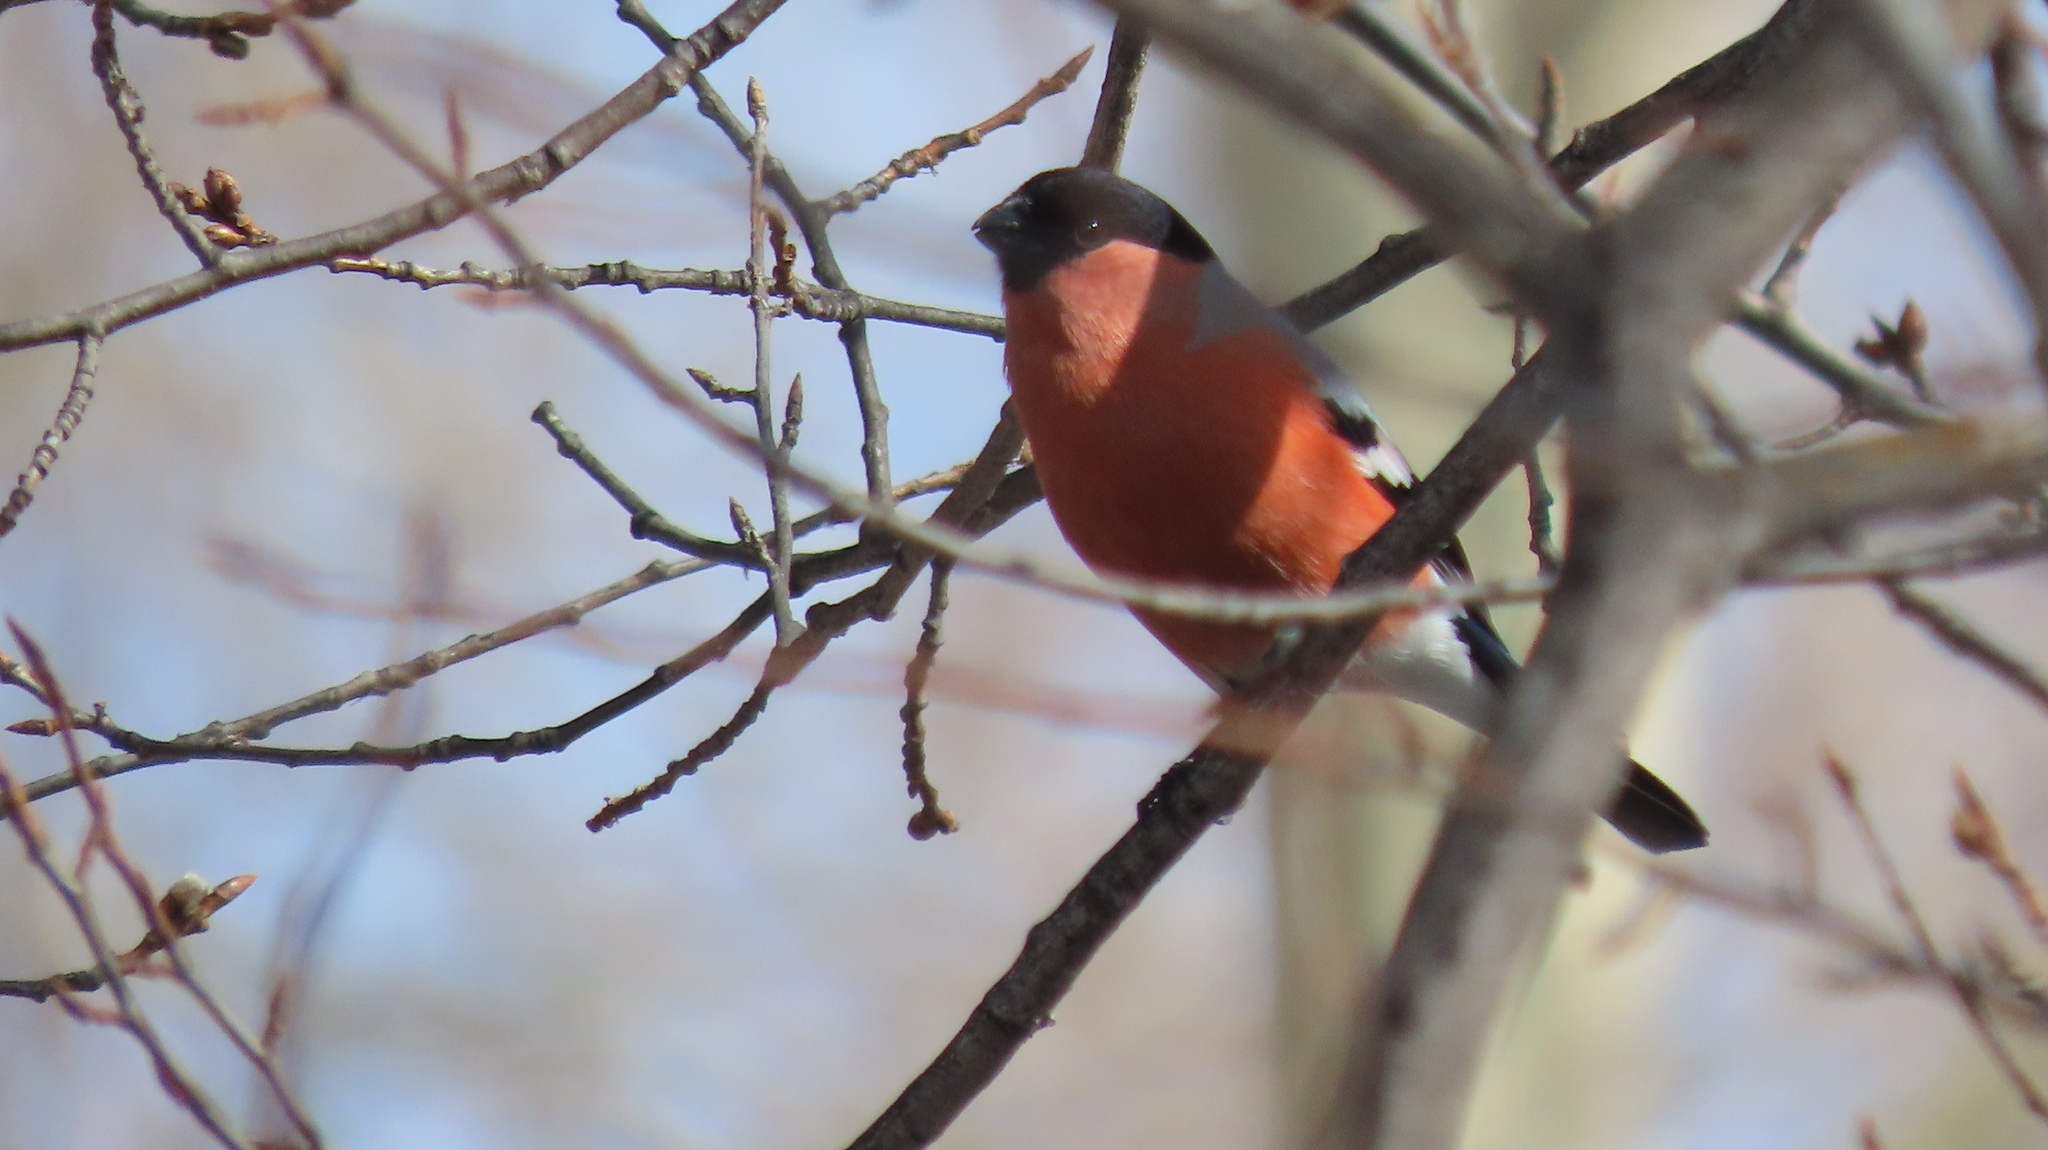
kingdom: Animalia
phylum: Chordata
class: Aves
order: Passeriformes
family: Fringillidae
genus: Pyrrhula
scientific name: Pyrrhula pyrrhula
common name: Eurasian bullfinch
